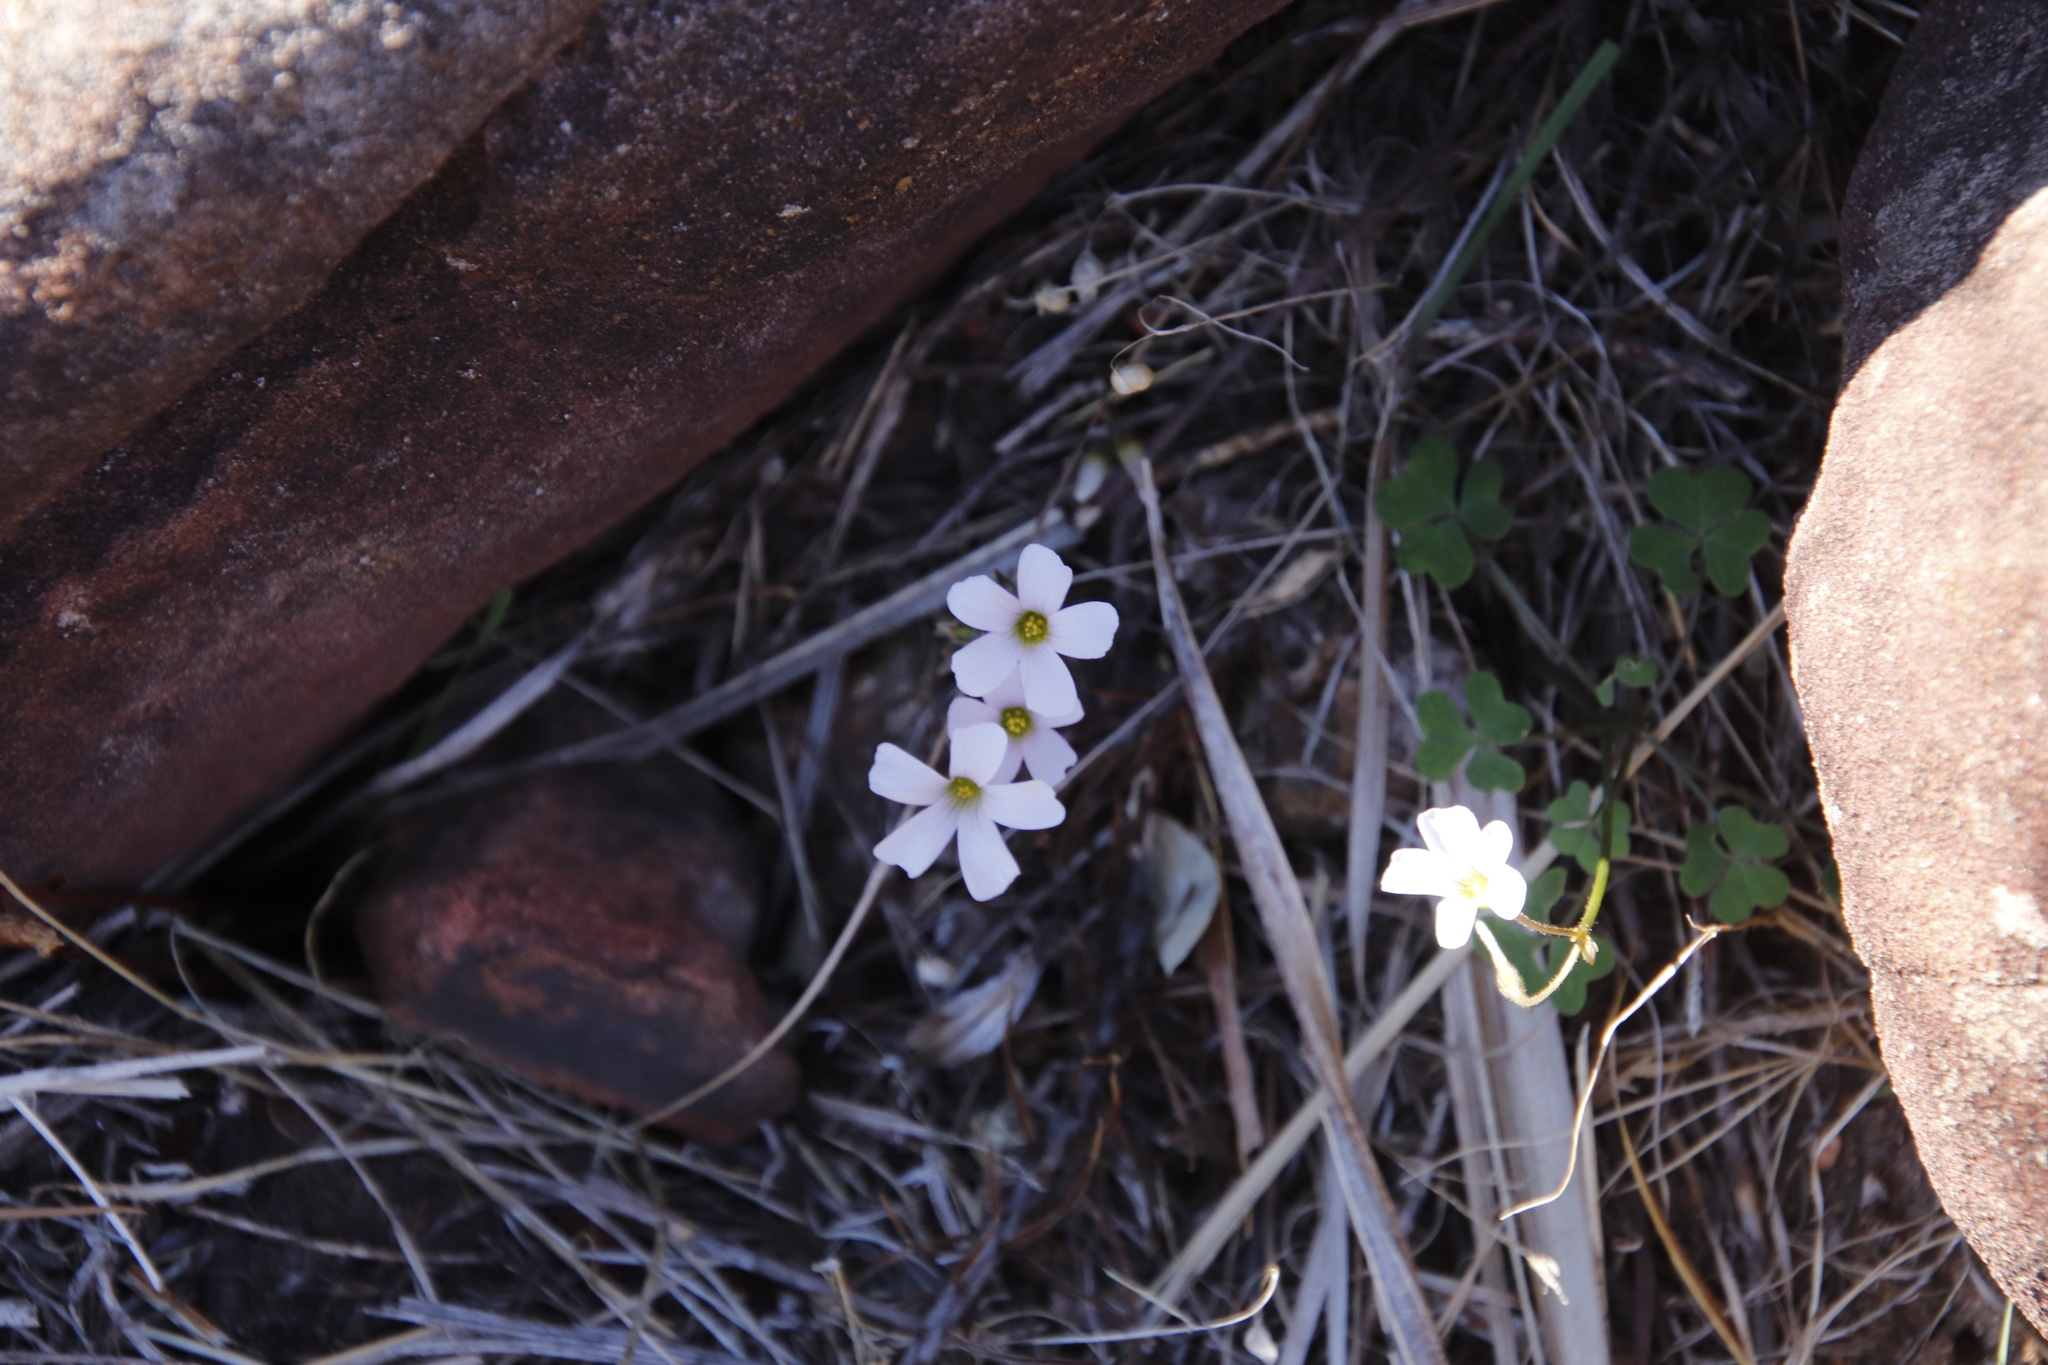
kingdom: Plantae
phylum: Tracheophyta
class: Magnoliopsida
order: Oxalidales
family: Oxalidaceae
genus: Oxalis
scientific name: Oxalis
